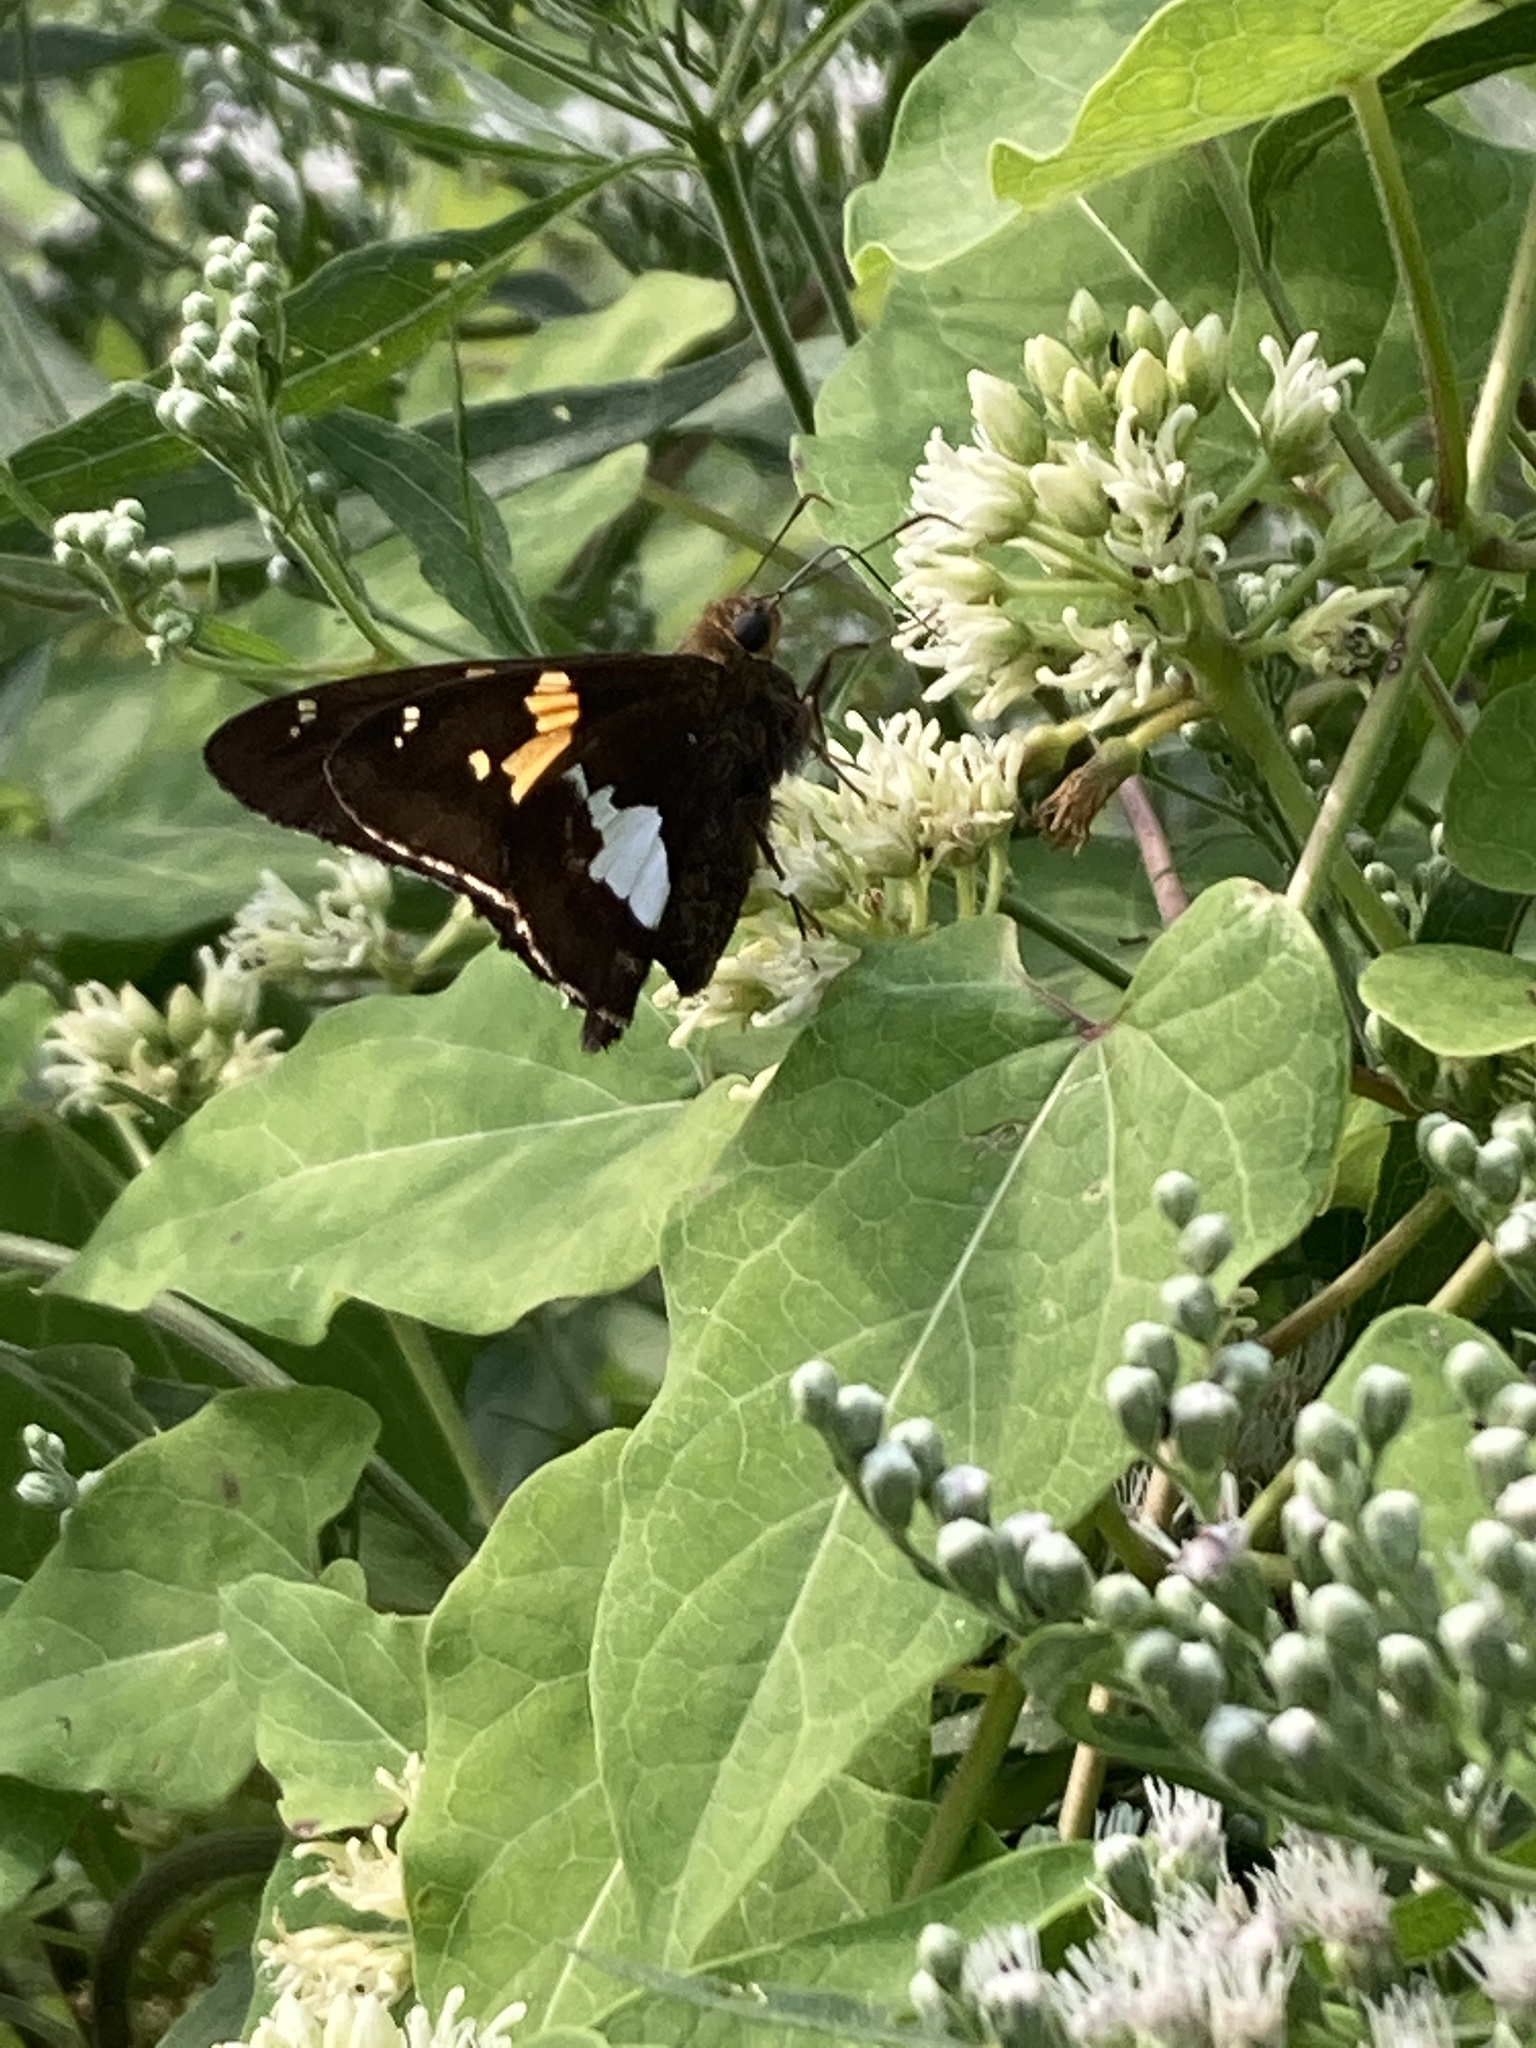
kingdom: Animalia
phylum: Arthropoda
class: Insecta
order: Lepidoptera
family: Hesperiidae
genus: Epargyreus
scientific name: Epargyreus clarus
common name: Silver-spotted skipper
